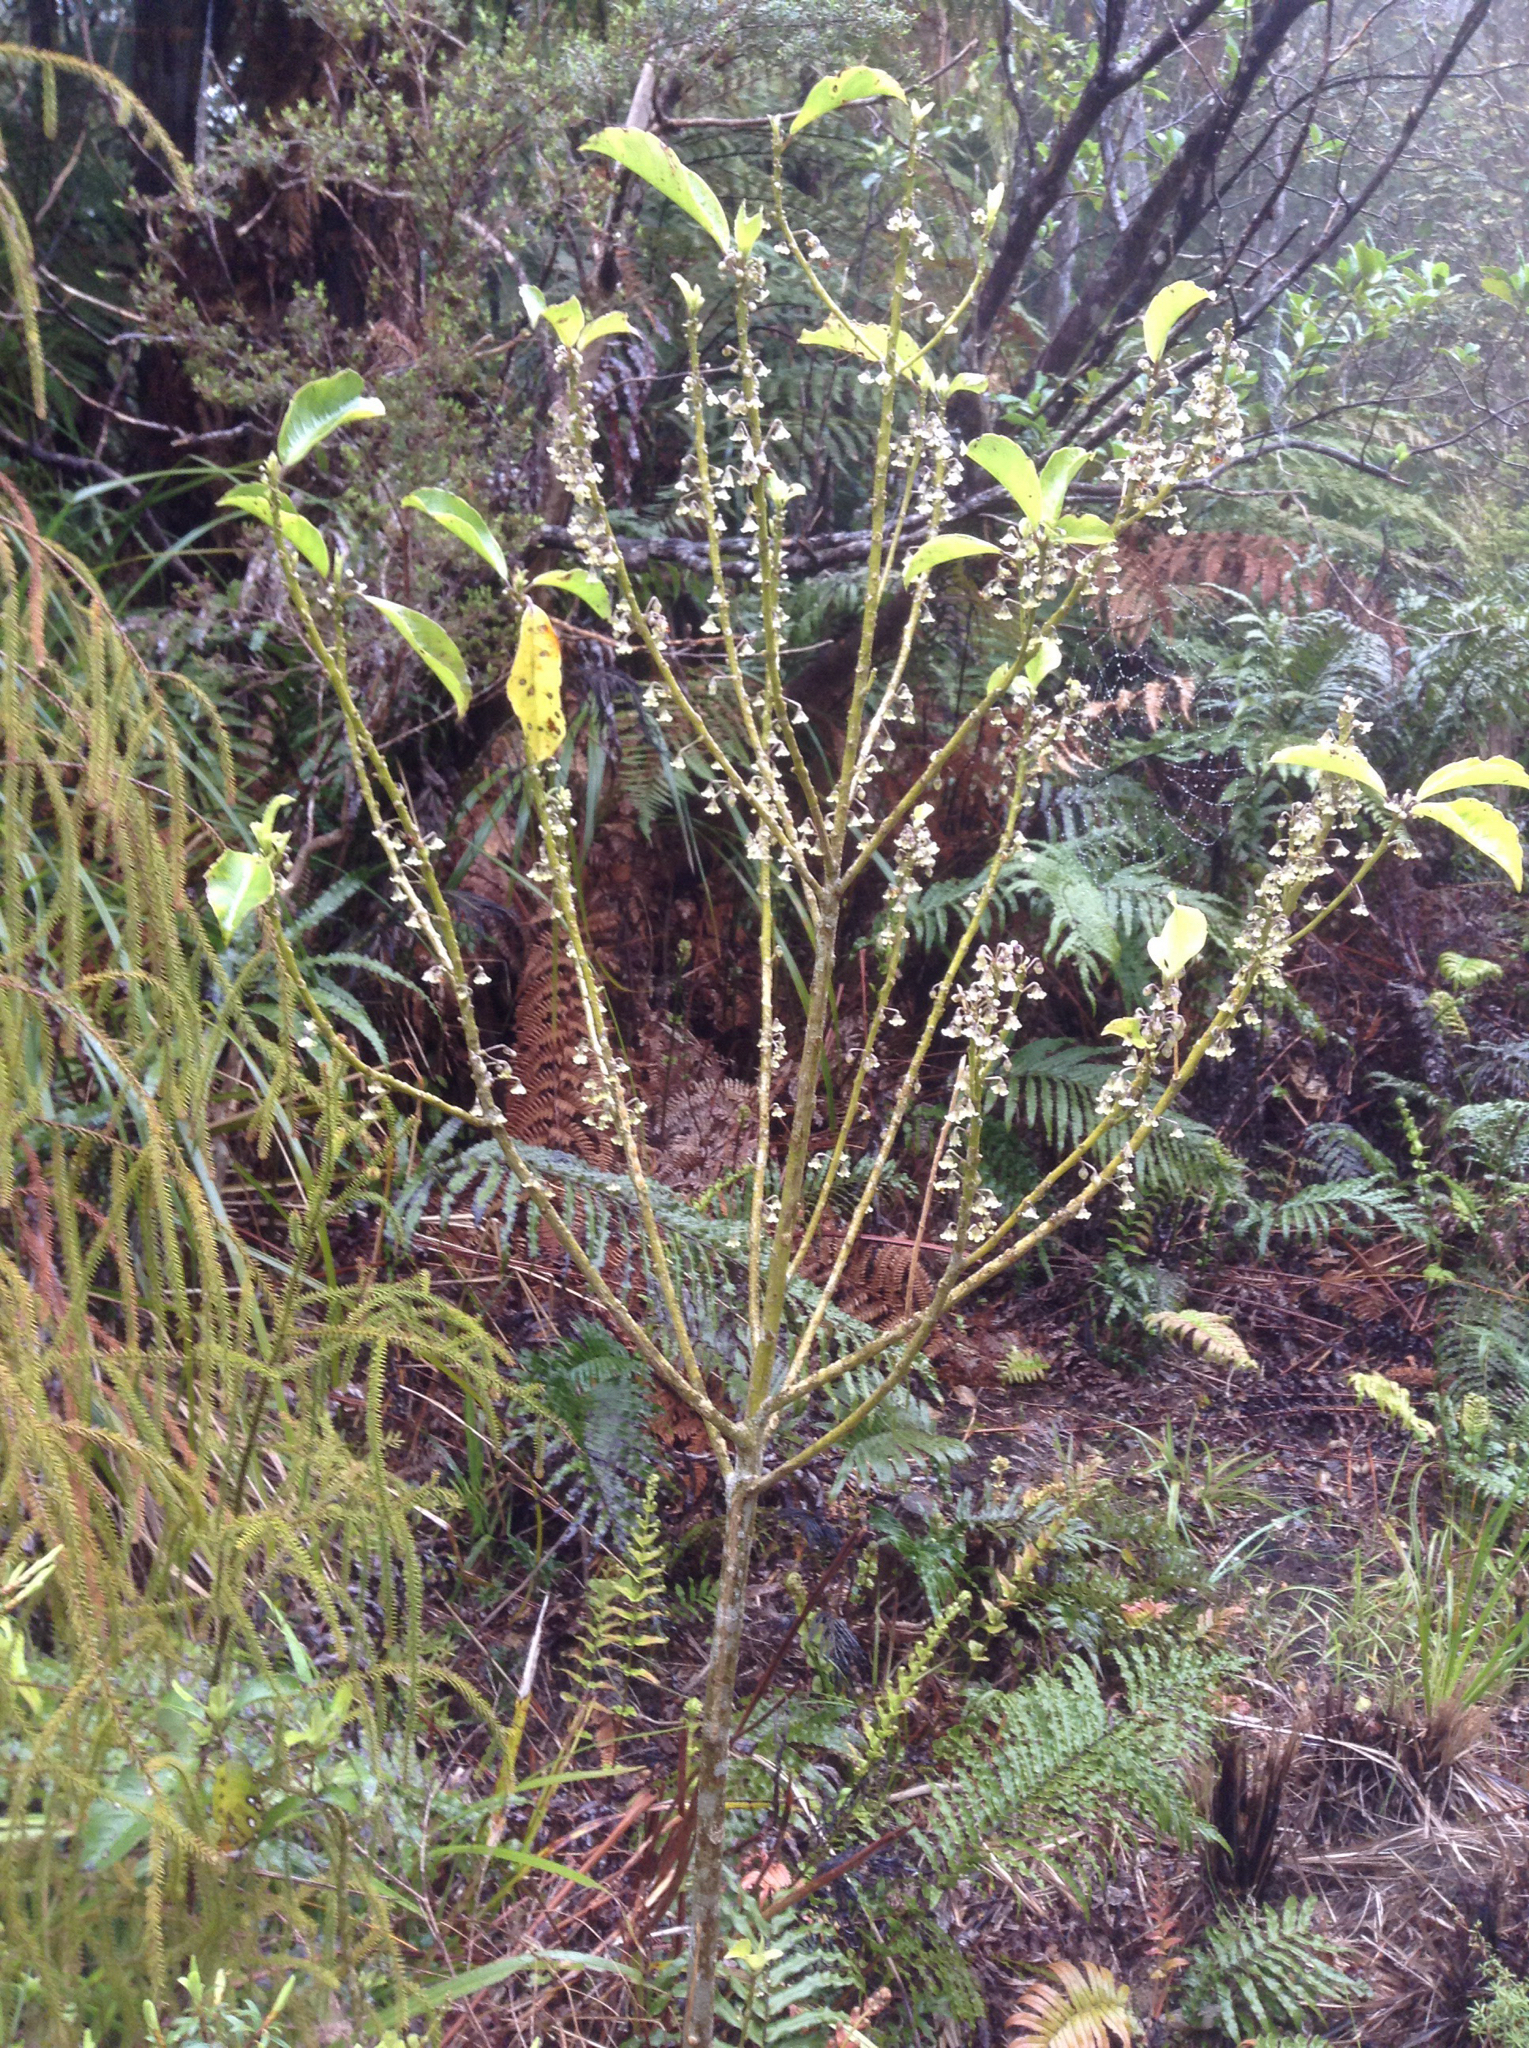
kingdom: Plantae
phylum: Tracheophyta
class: Magnoliopsida
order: Malpighiales
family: Violaceae
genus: Melicytus
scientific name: Melicytus macrophyllus
